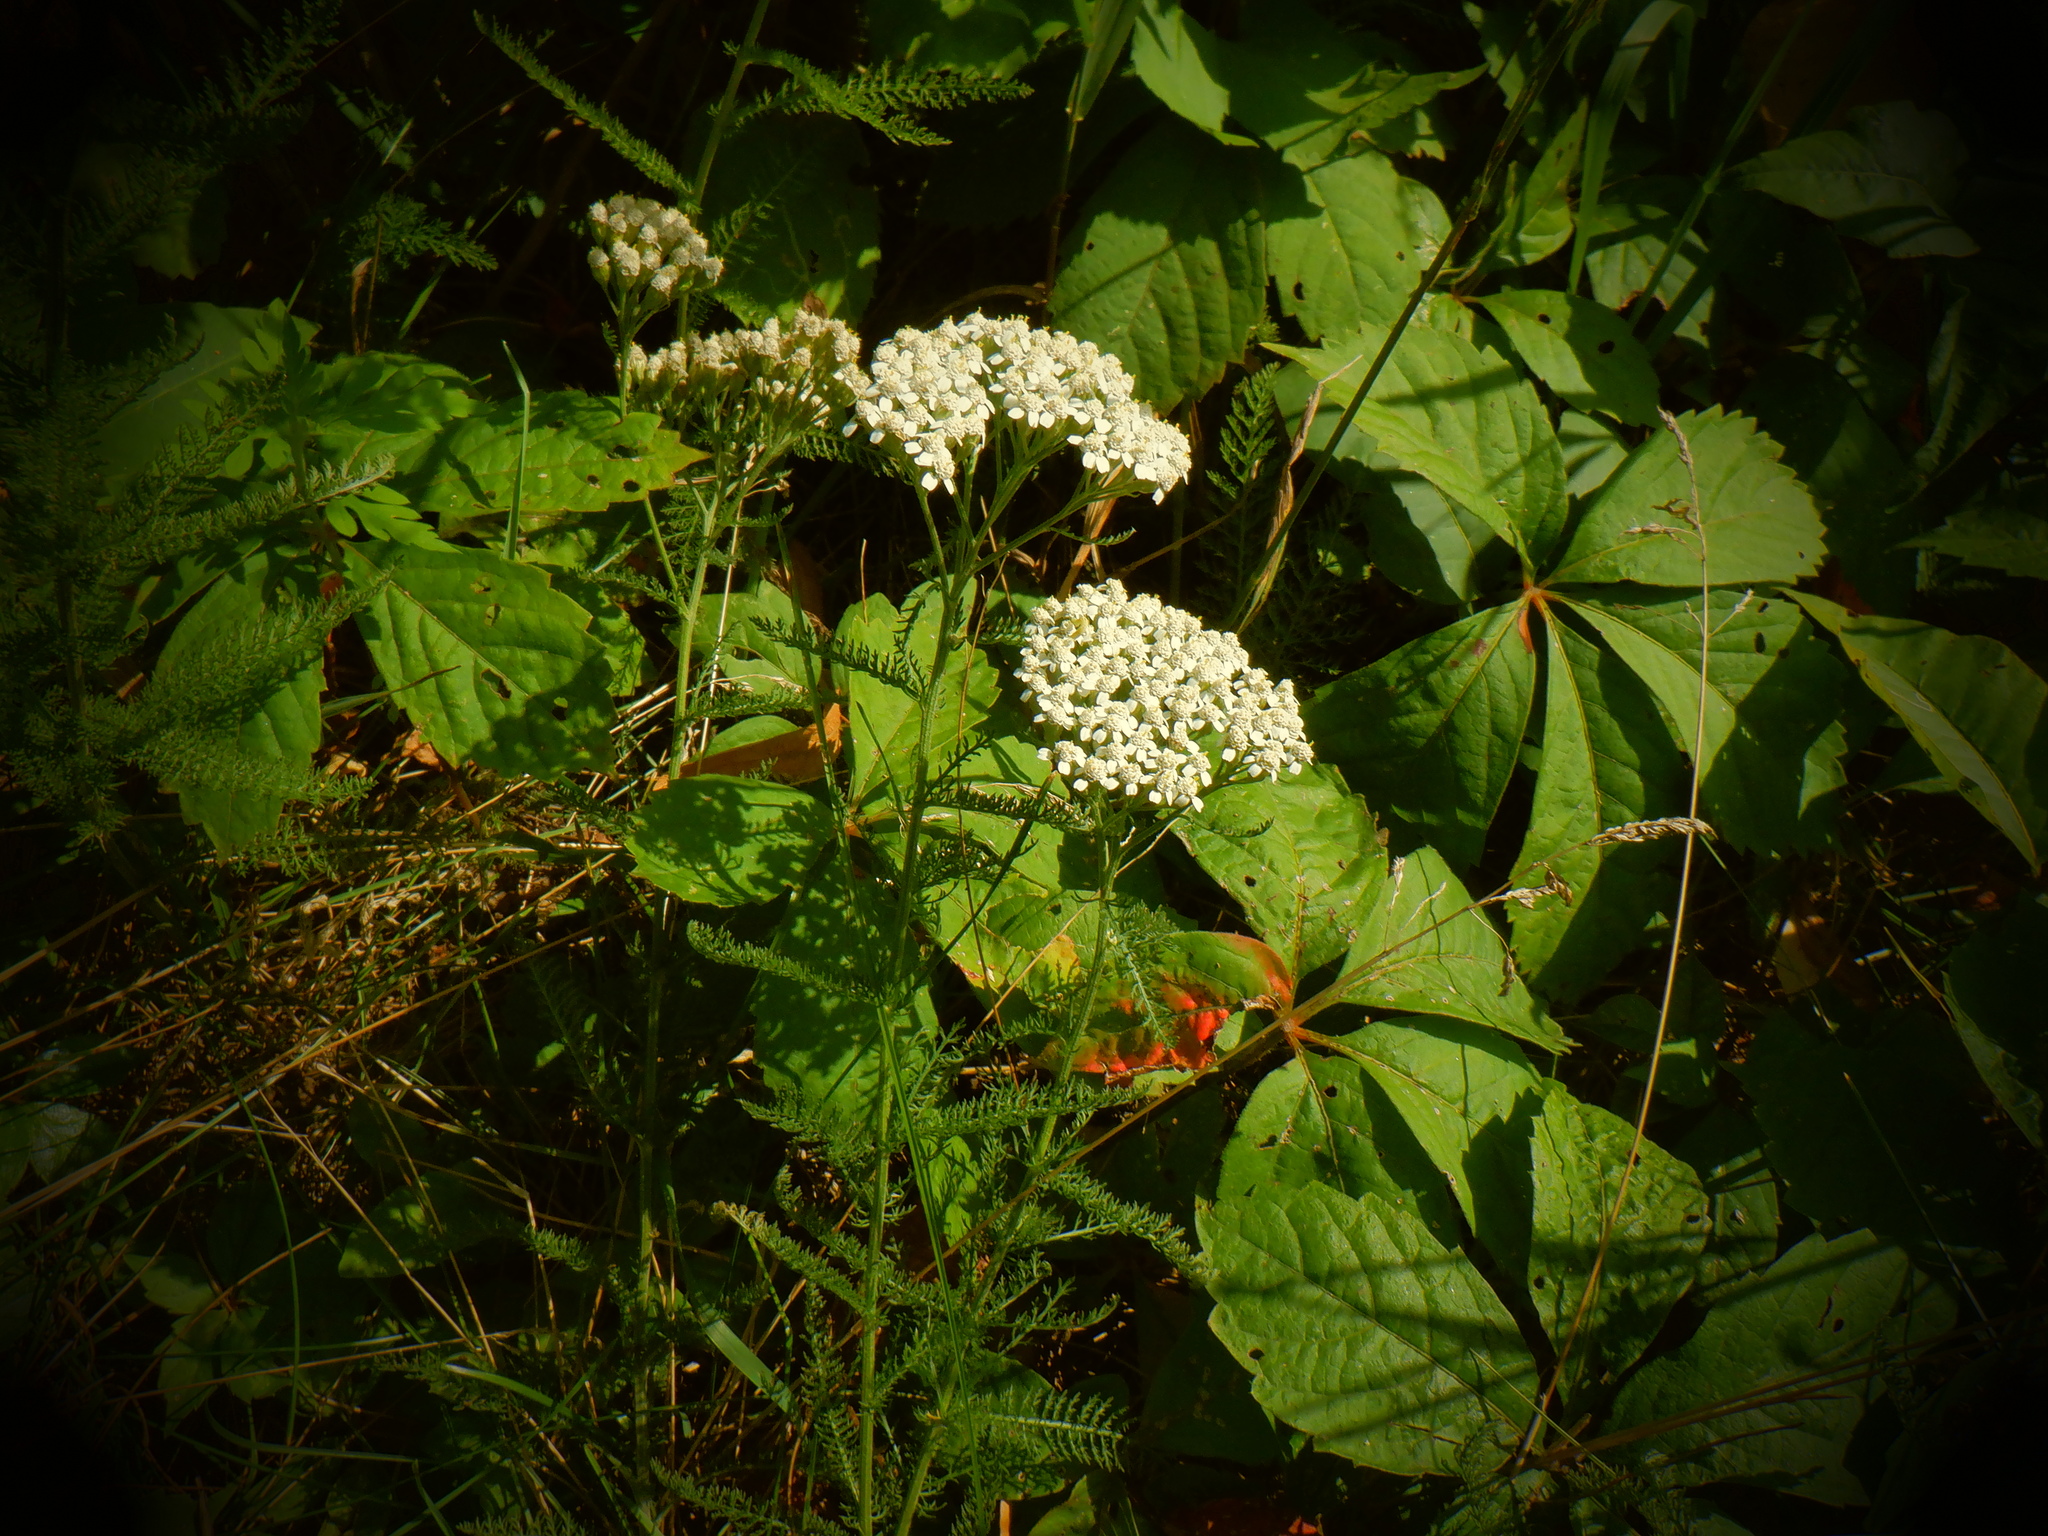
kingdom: Plantae
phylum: Tracheophyta
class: Magnoliopsida
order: Asterales
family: Asteraceae
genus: Achillea
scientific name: Achillea millefolium
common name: Yarrow
